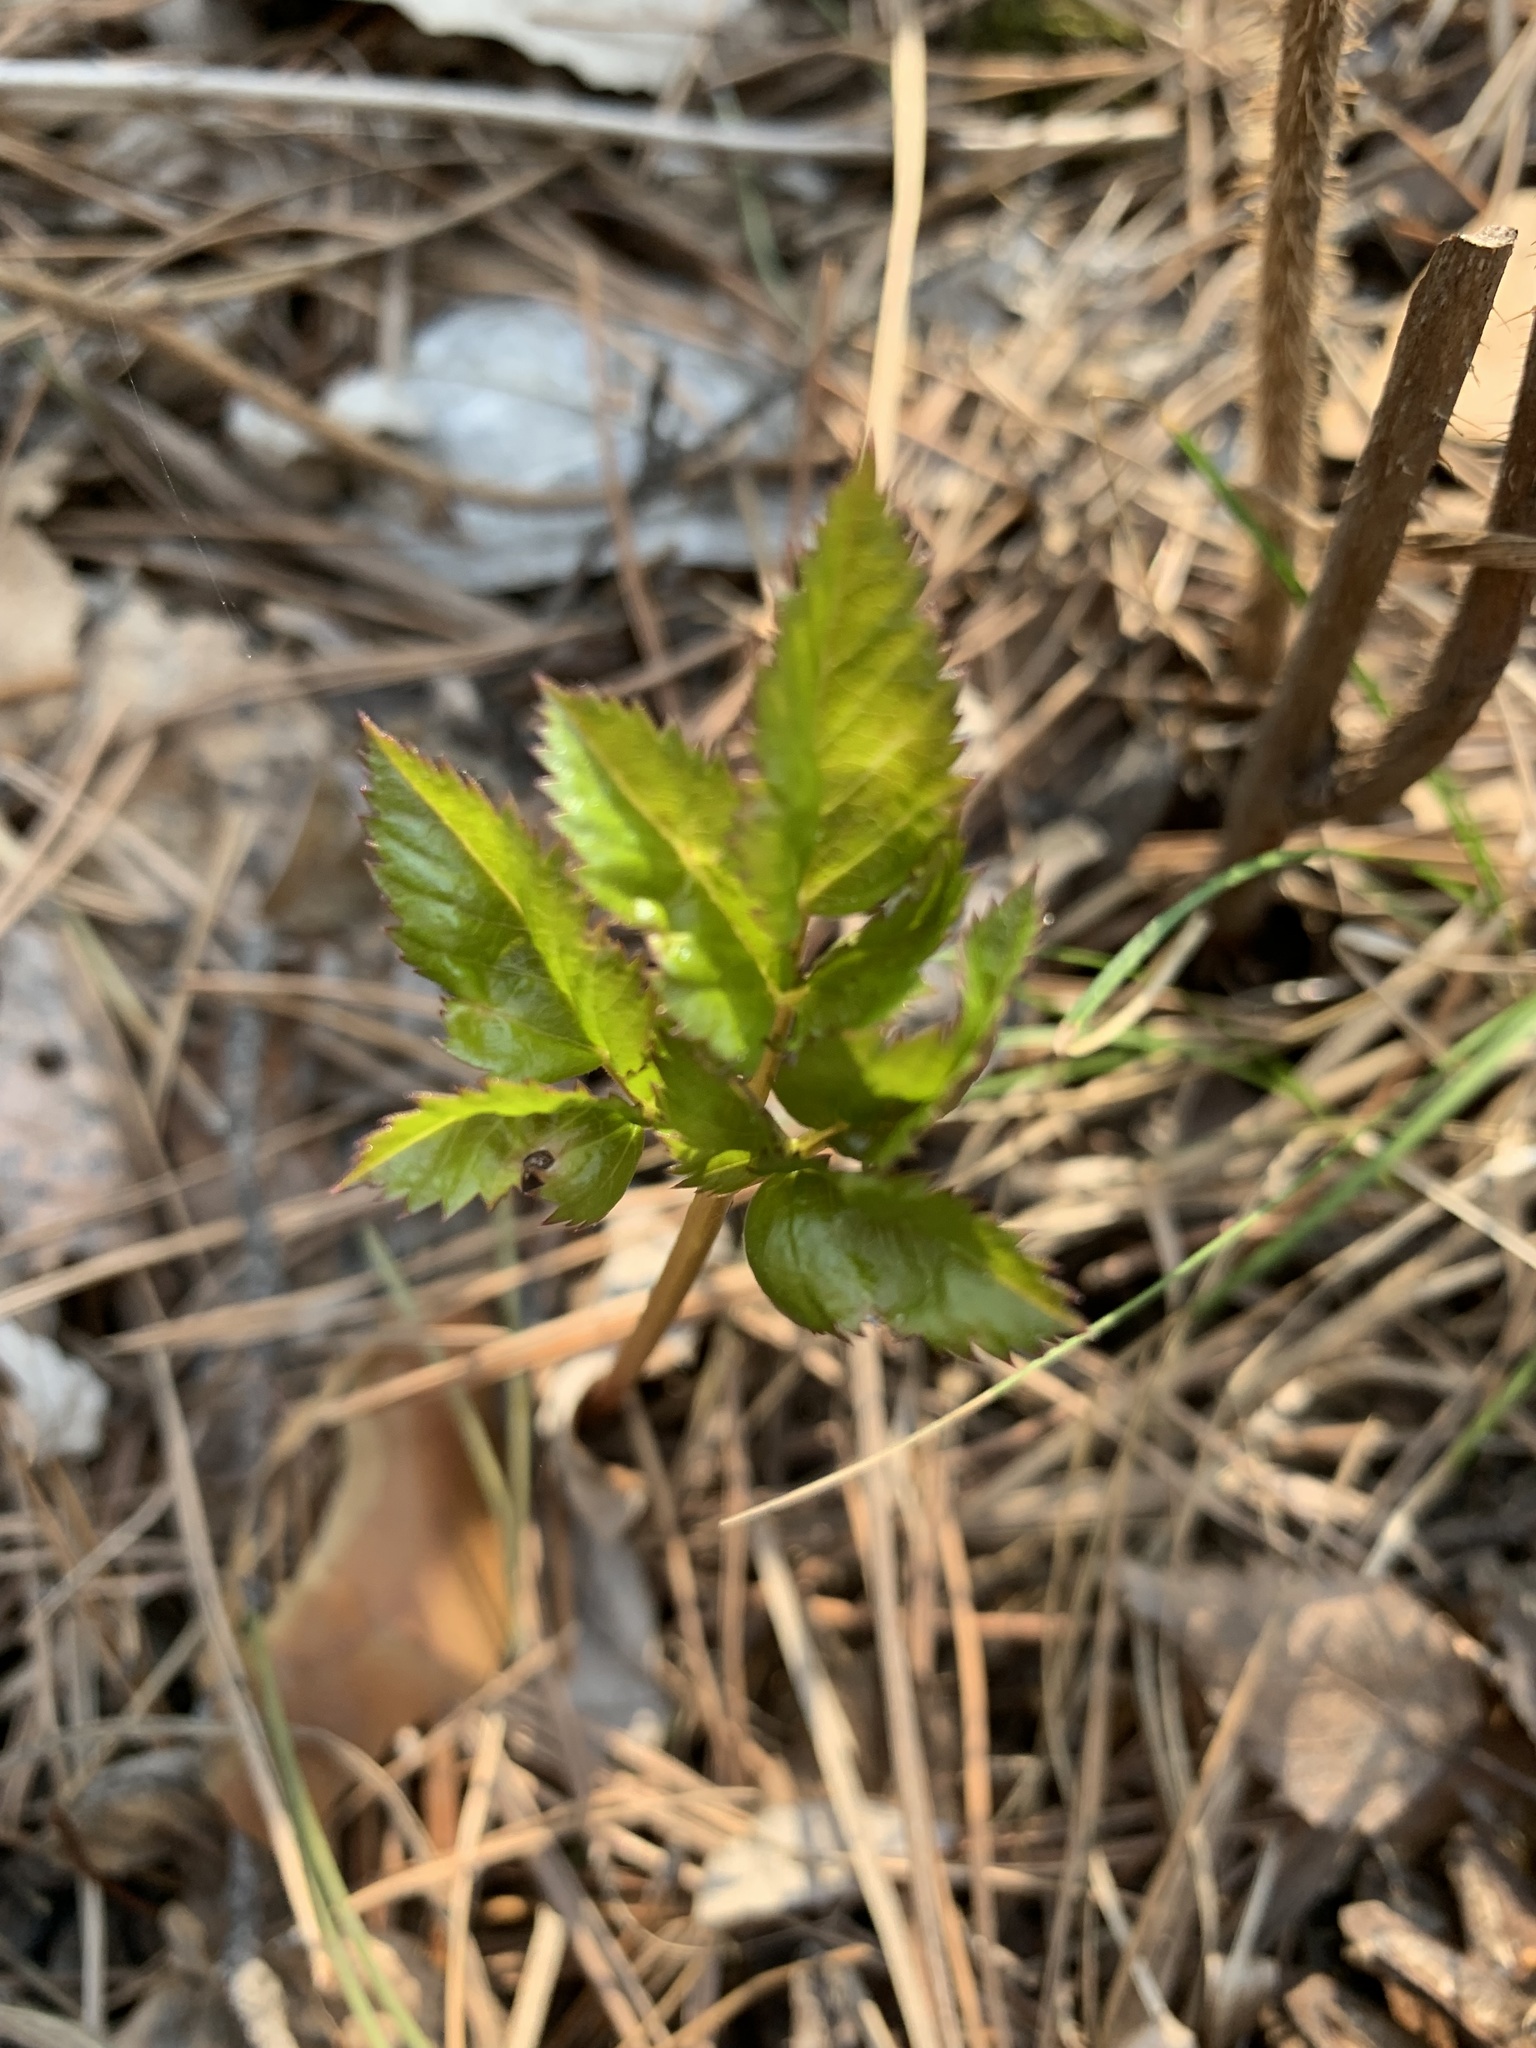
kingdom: Plantae
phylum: Tracheophyta
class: Magnoliopsida
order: Apiales
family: Apiaceae
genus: Aegopodium
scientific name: Aegopodium podagraria
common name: Ground-elder
